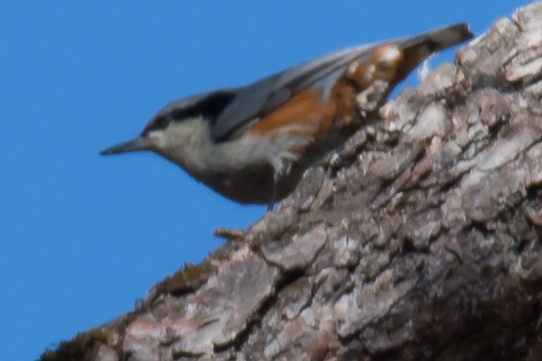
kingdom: Animalia
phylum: Chordata
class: Aves
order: Passeriformes
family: Sittidae
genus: Sitta
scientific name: Sitta nagaensis
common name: Chestnut-vented nuthatch
